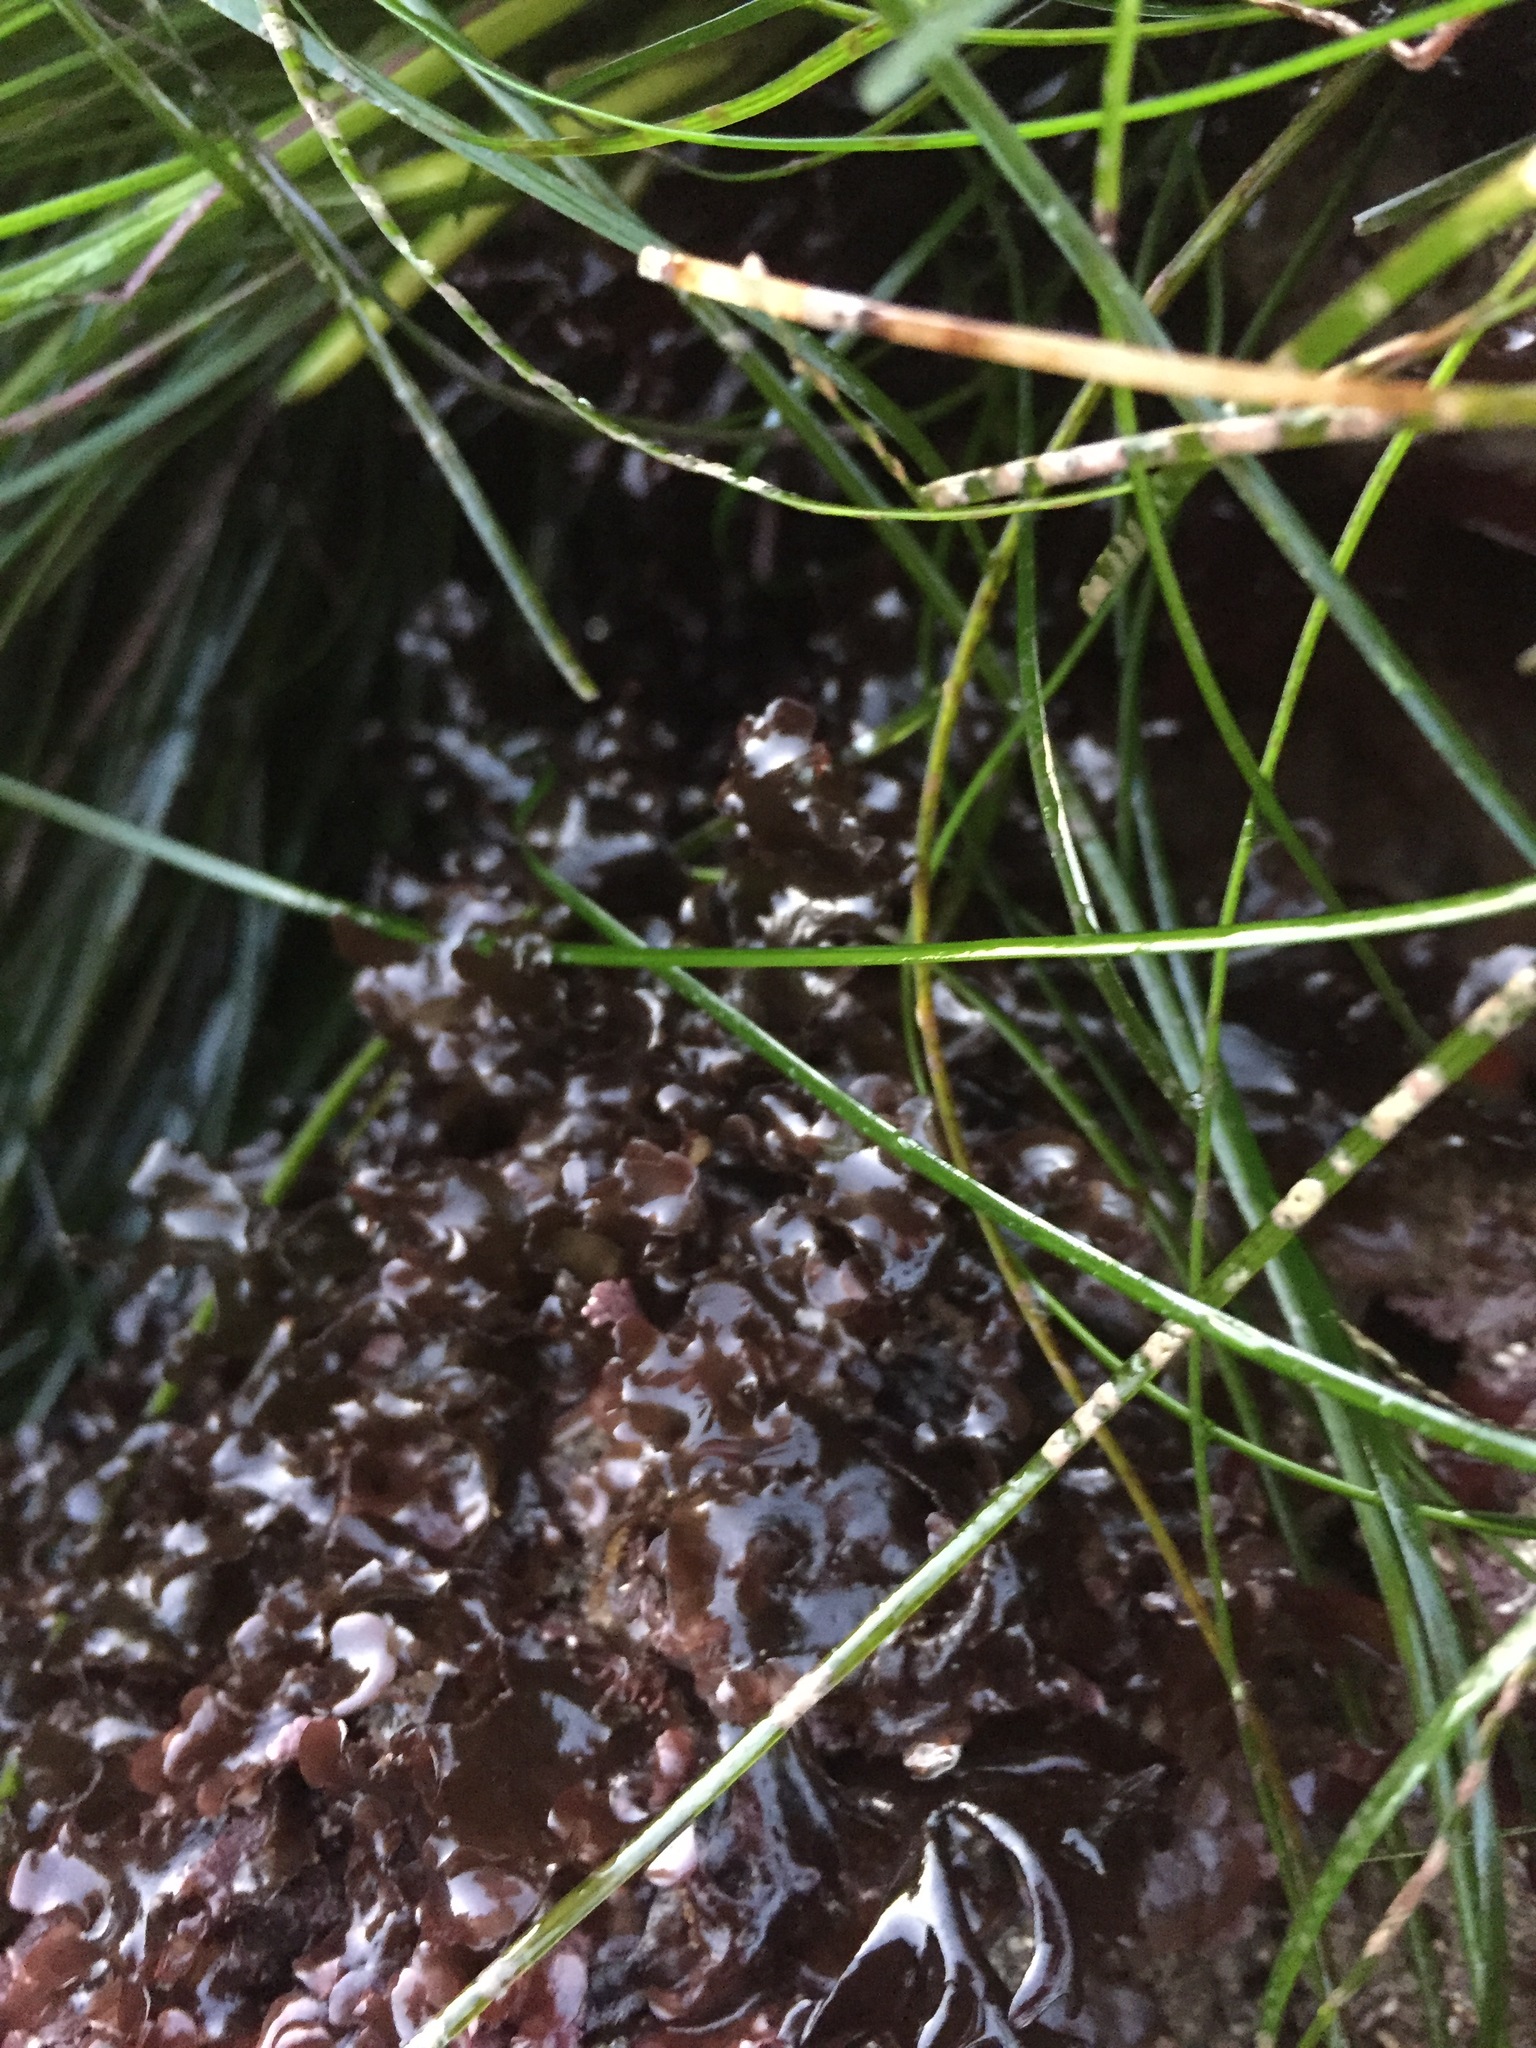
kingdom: Plantae
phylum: Rhodophyta
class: Florideophyceae
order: Ceramiales
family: Delesseriaceae
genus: Cryptopleura
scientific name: Cryptopleura crispa
